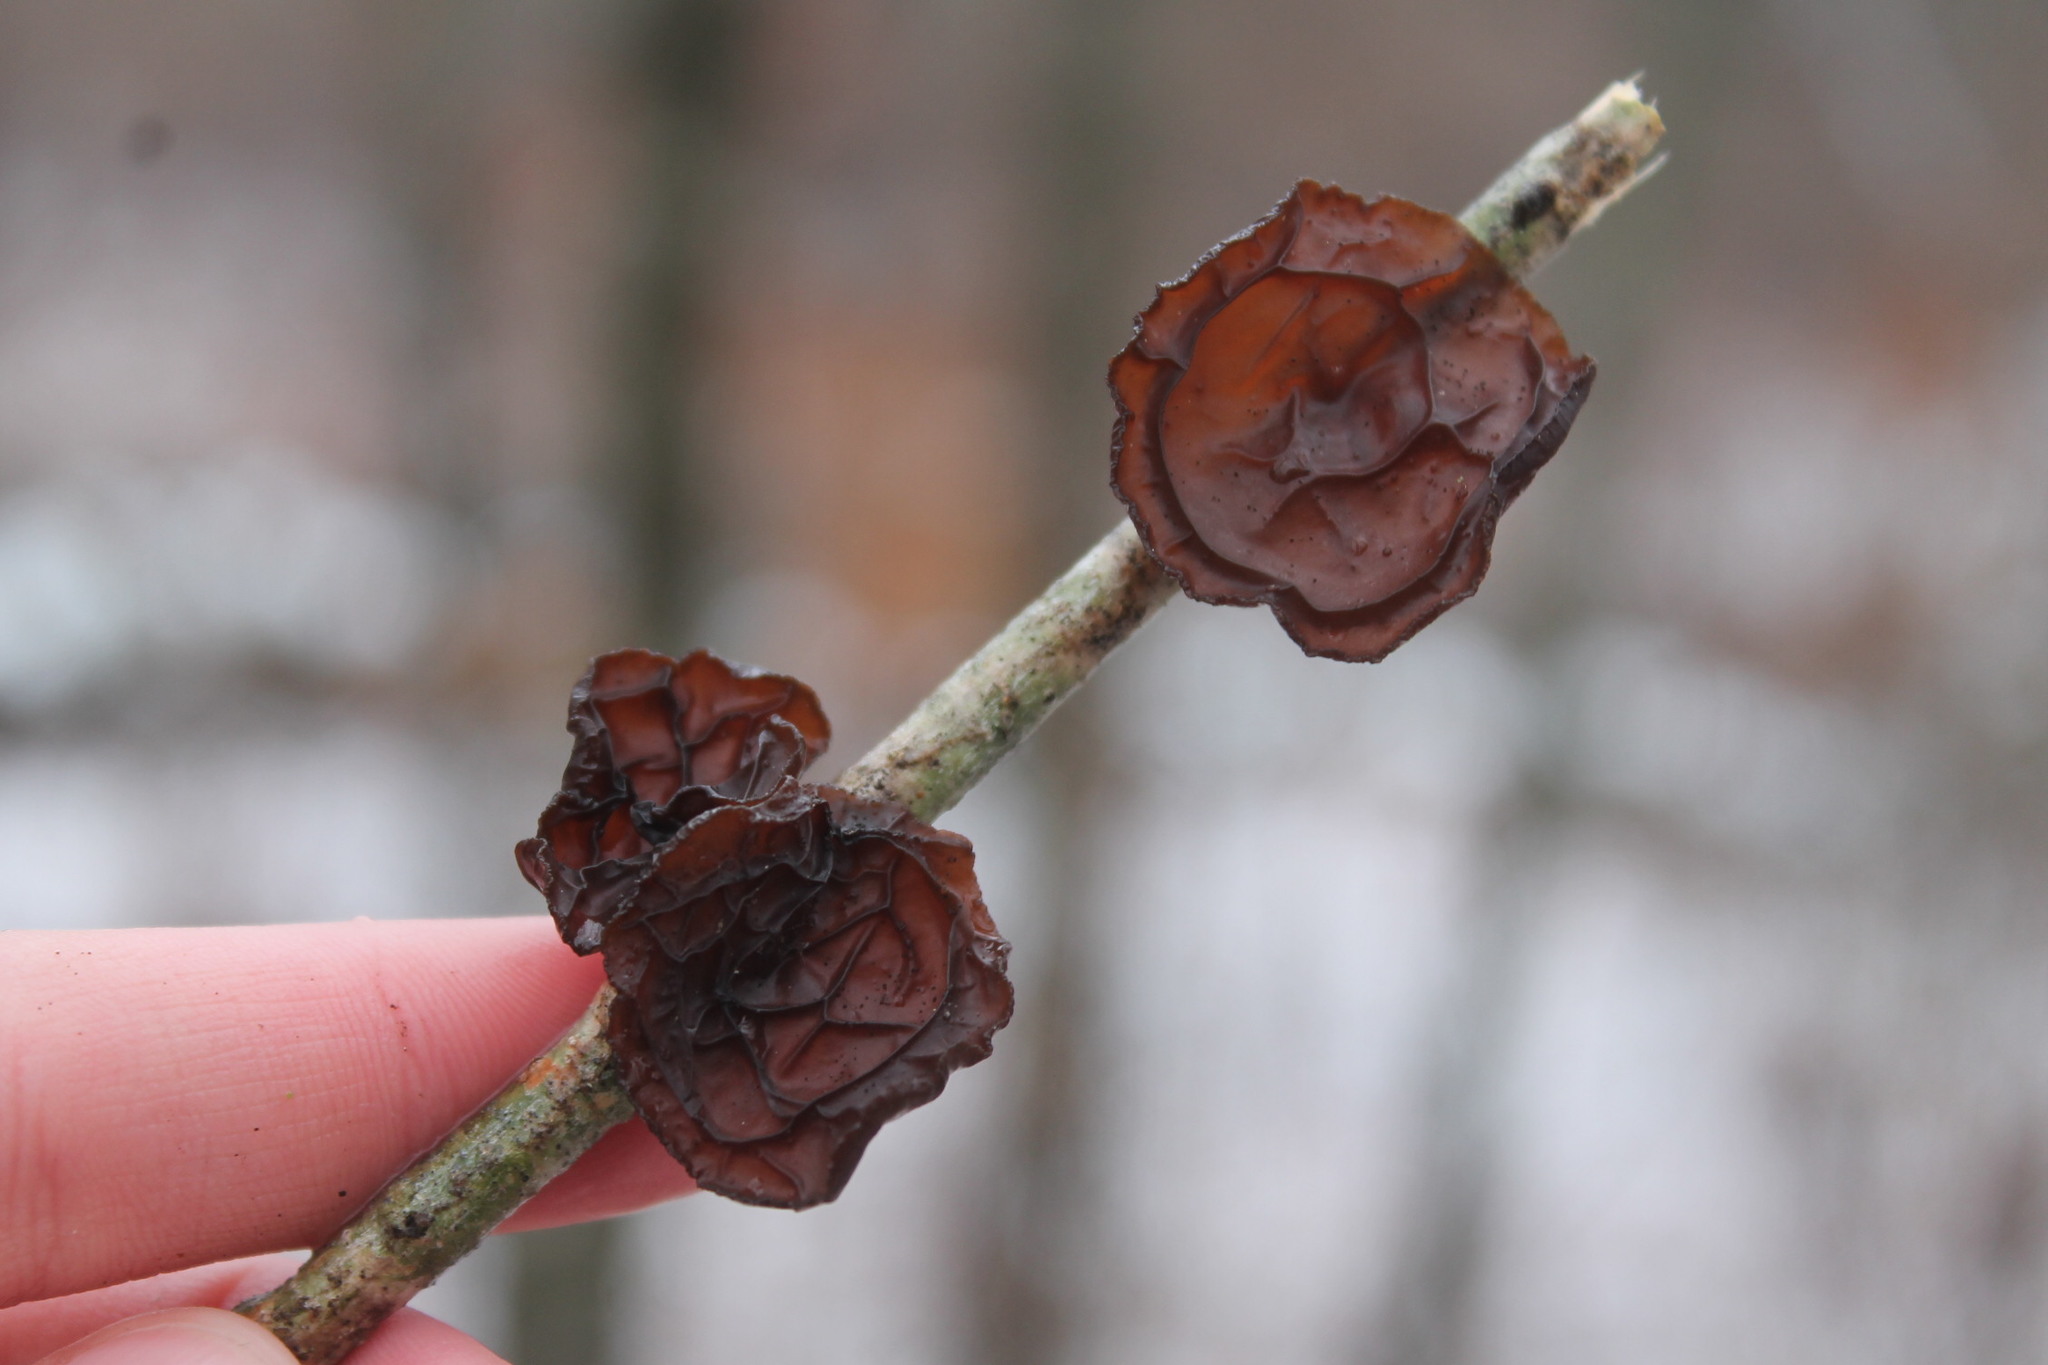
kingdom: Fungi
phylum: Basidiomycota
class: Agaricomycetes
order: Auriculariales
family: Auriculariaceae
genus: Exidia
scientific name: Exidia
